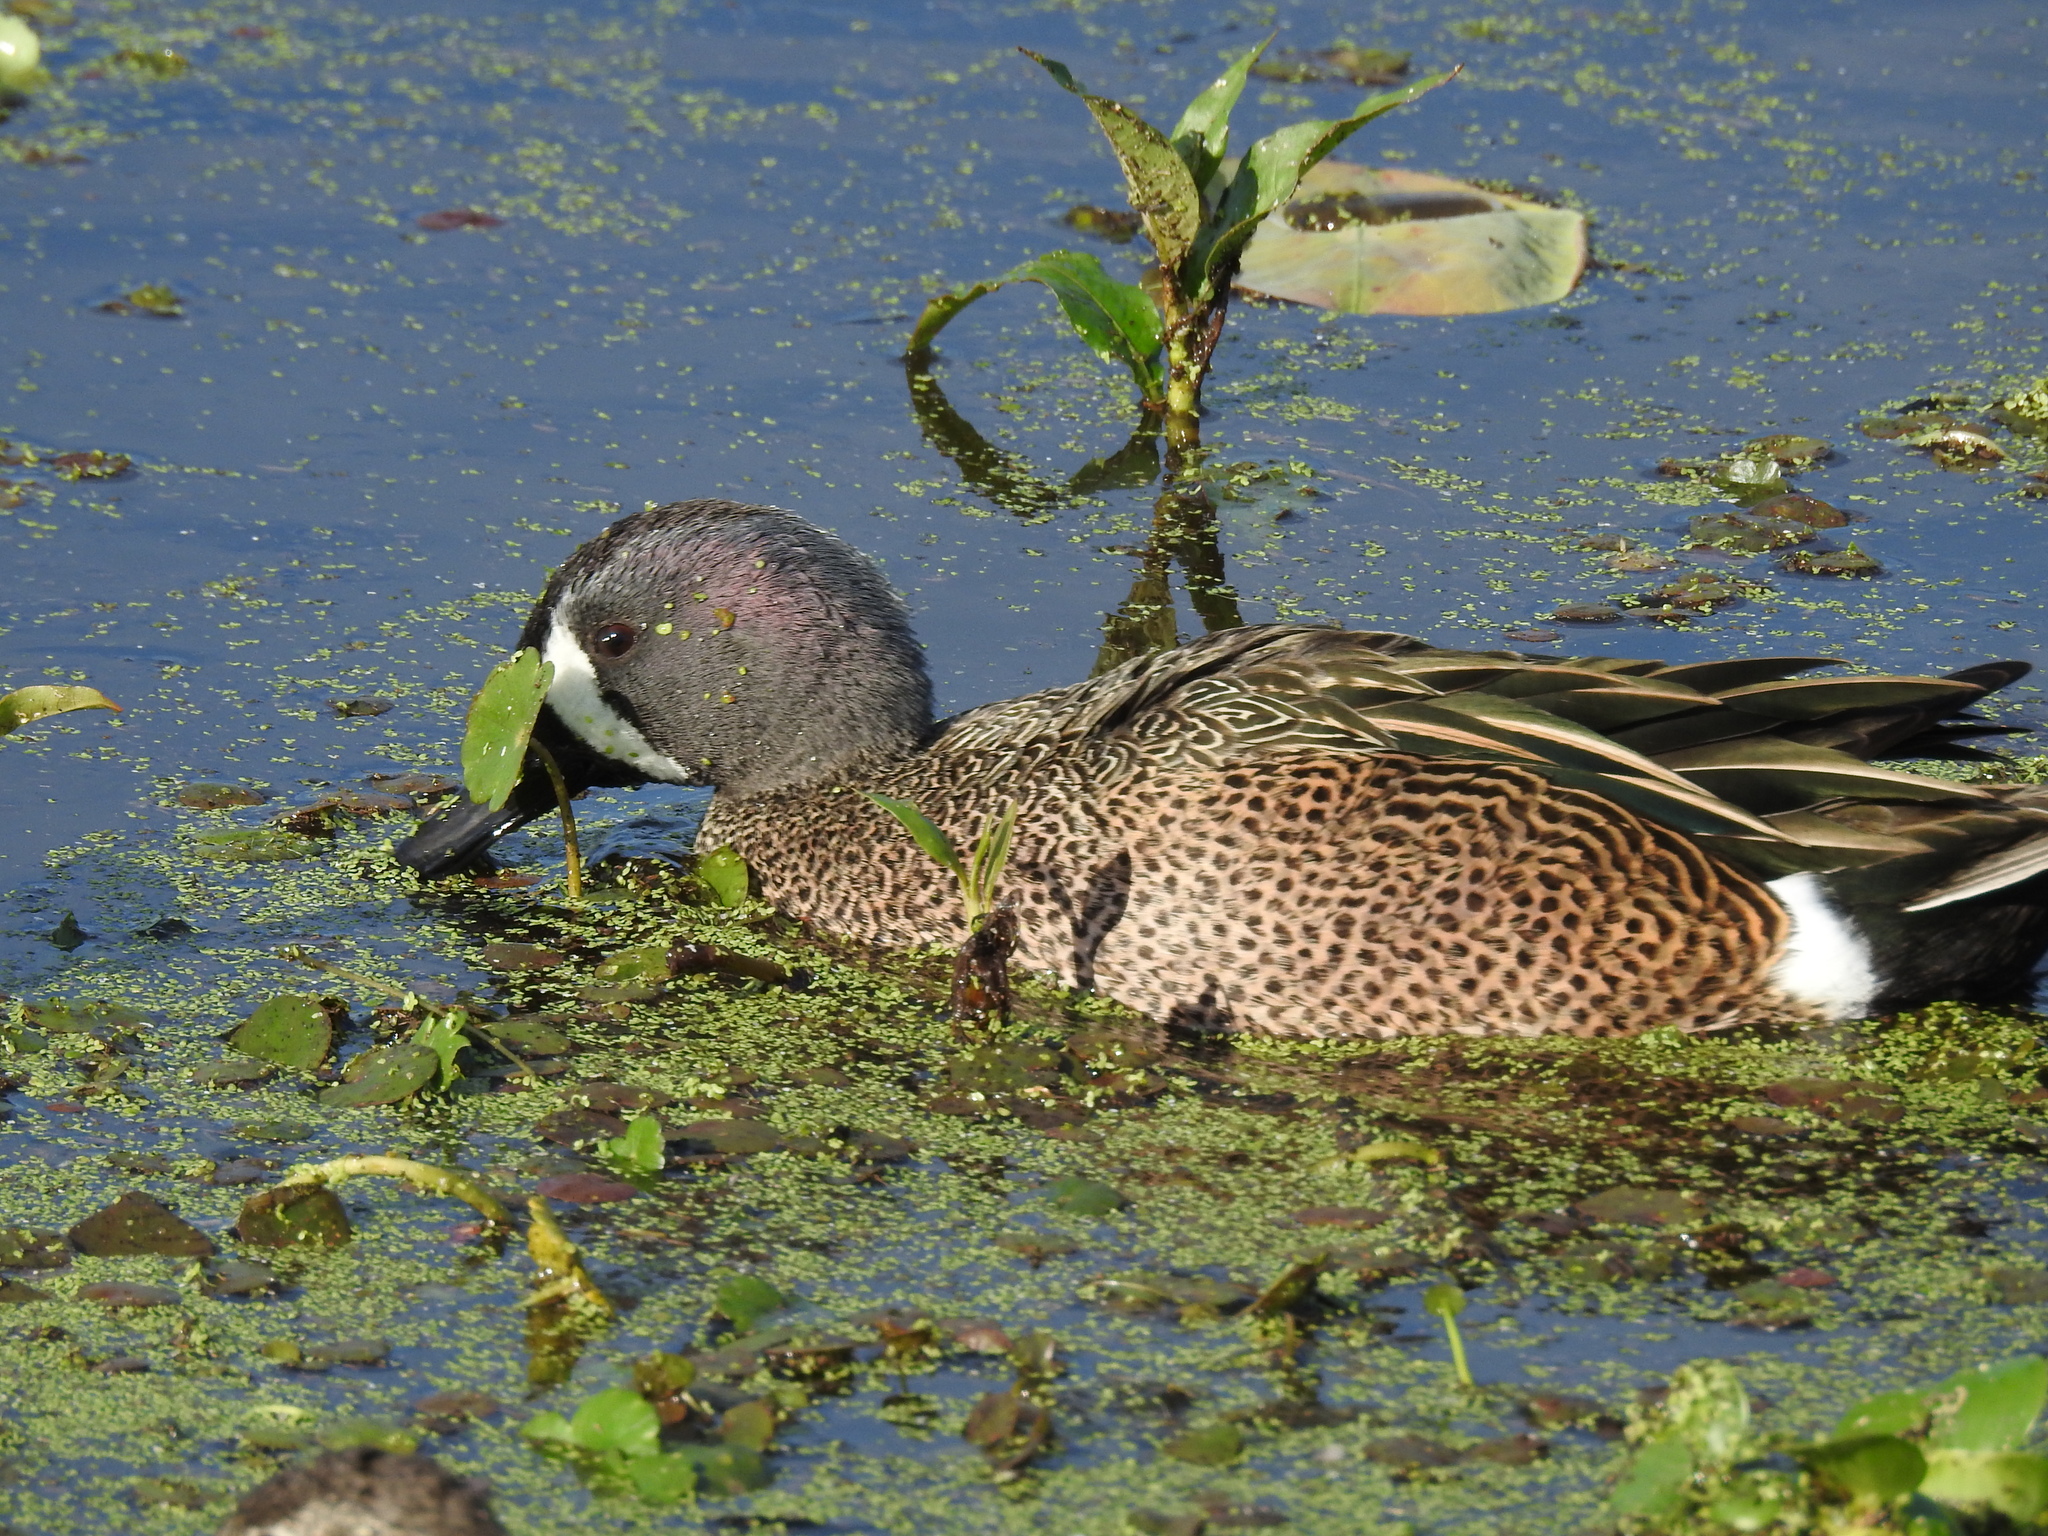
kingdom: Animalia
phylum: Chordata
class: Aves
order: Anseriformes
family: Anatidae
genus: Spatula
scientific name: Spatula discors
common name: Blue-winged teal
